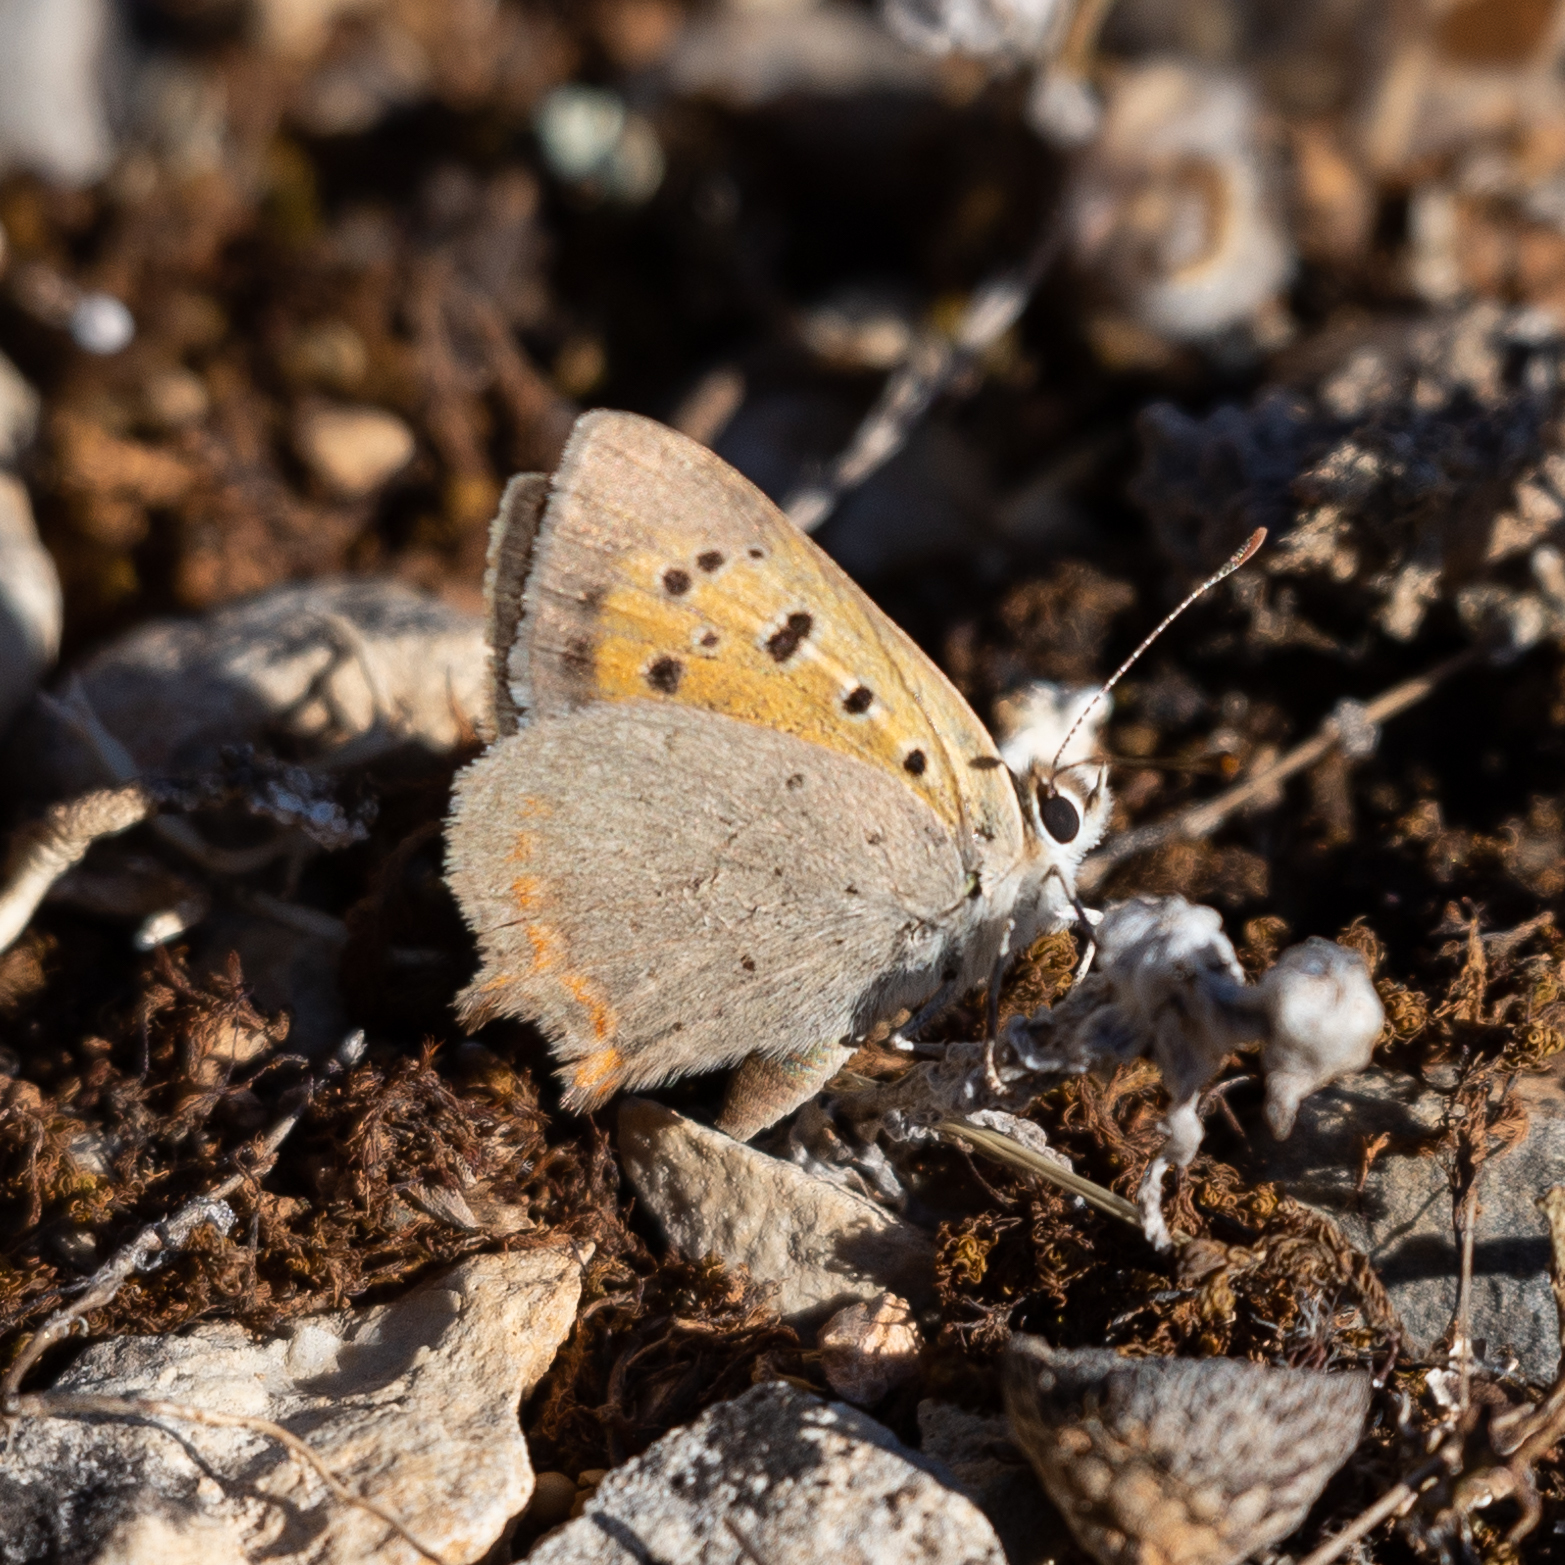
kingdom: Animalia
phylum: Arthropoda
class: Insecta
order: Lepidoptera
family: Lycaenidae
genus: Lycaena
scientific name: Lycaena phlaeas
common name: Small copper
